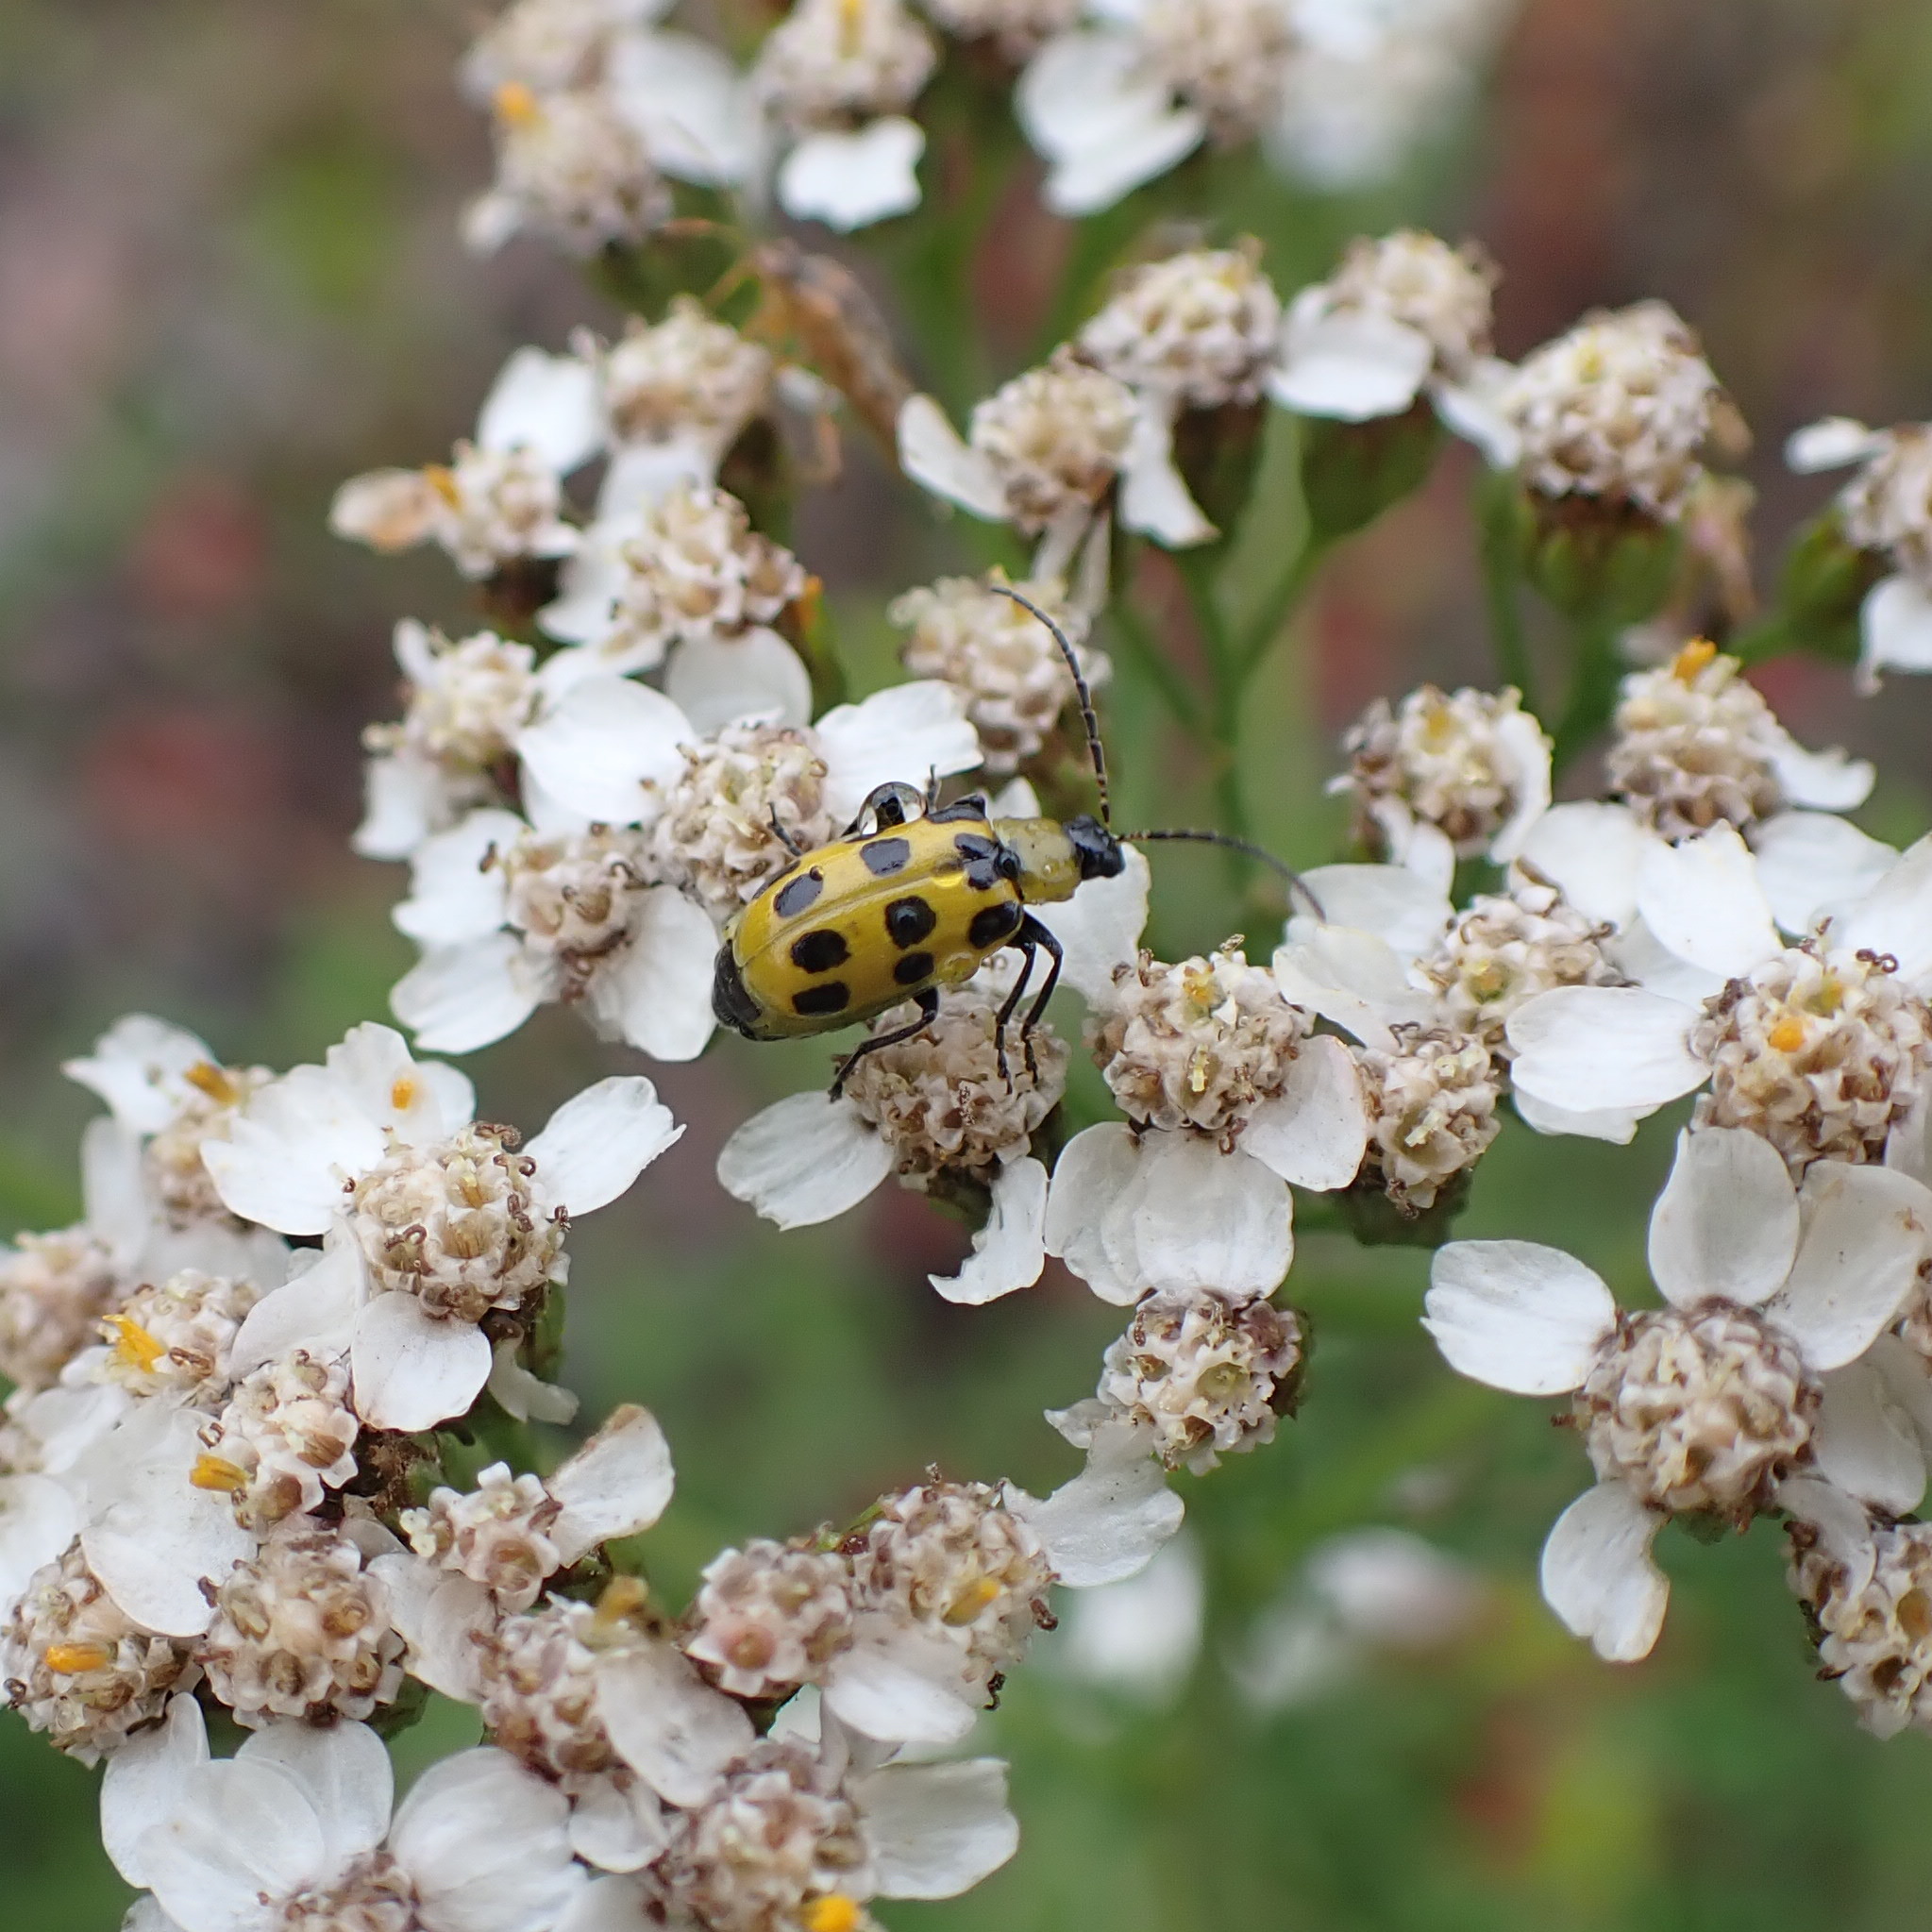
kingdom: Animalia
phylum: Arthropoda
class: Insecta
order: Coleoptera
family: Chrysomelidae
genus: Diabrotica
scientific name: Diabrotica undecimpunctata
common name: Spotted cucumber beetle
